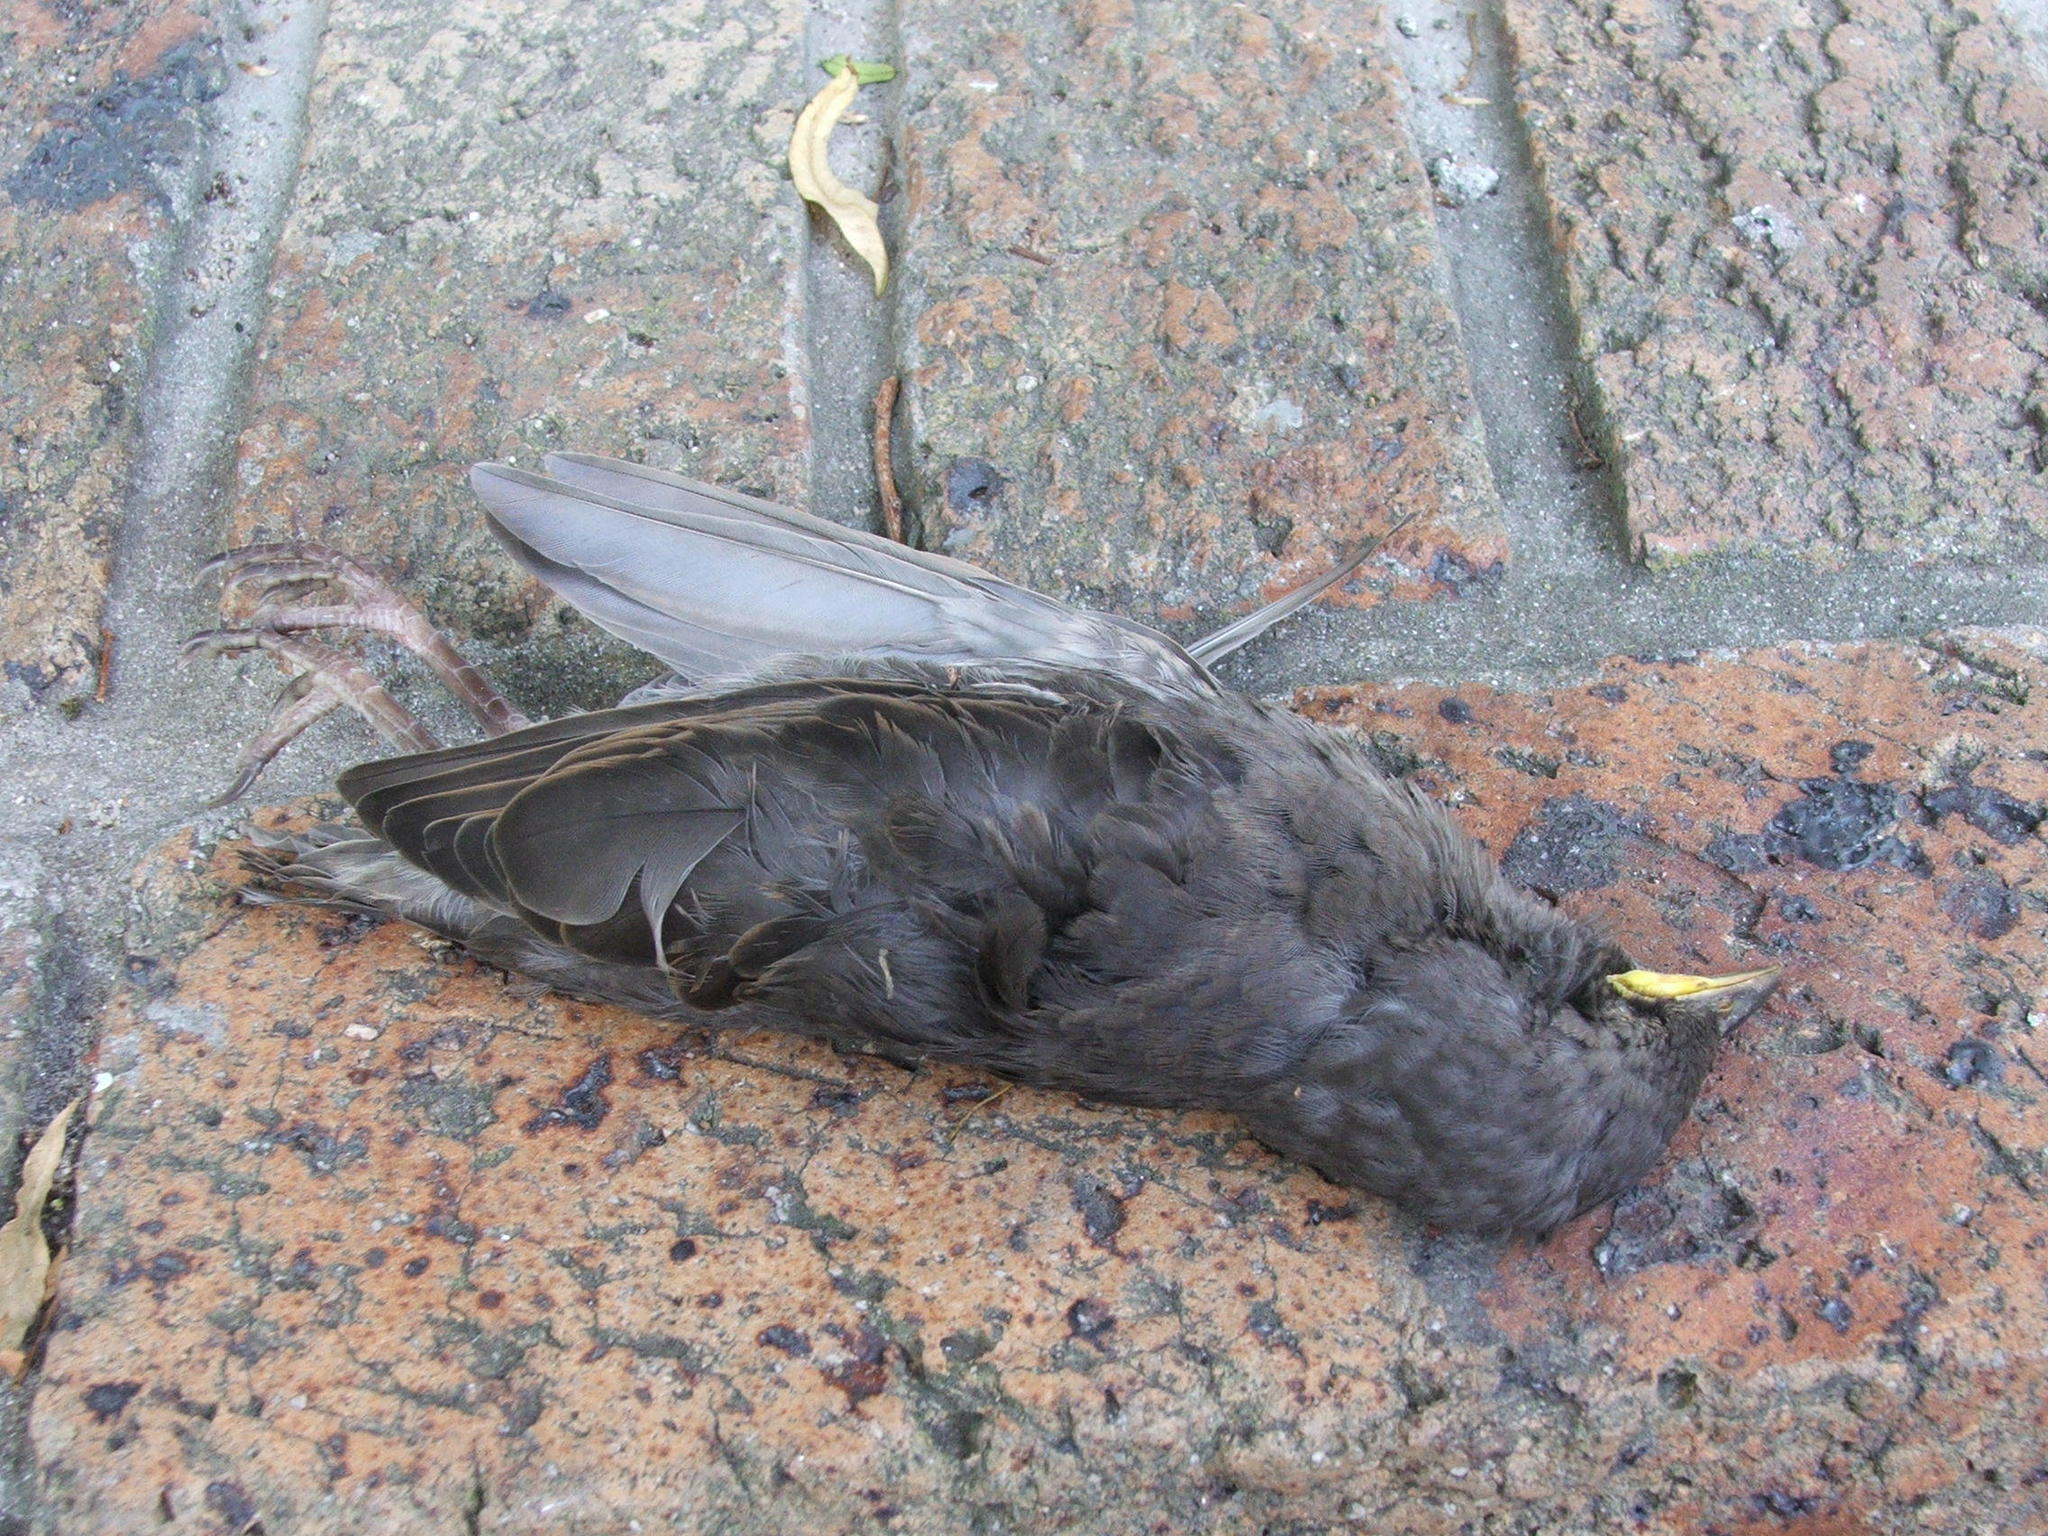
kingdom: Animalia
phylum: Chordata
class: Aves
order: Passeriformes
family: Sturnidae
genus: Sturnus
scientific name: Sturnus vulgaris
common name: Common starling
